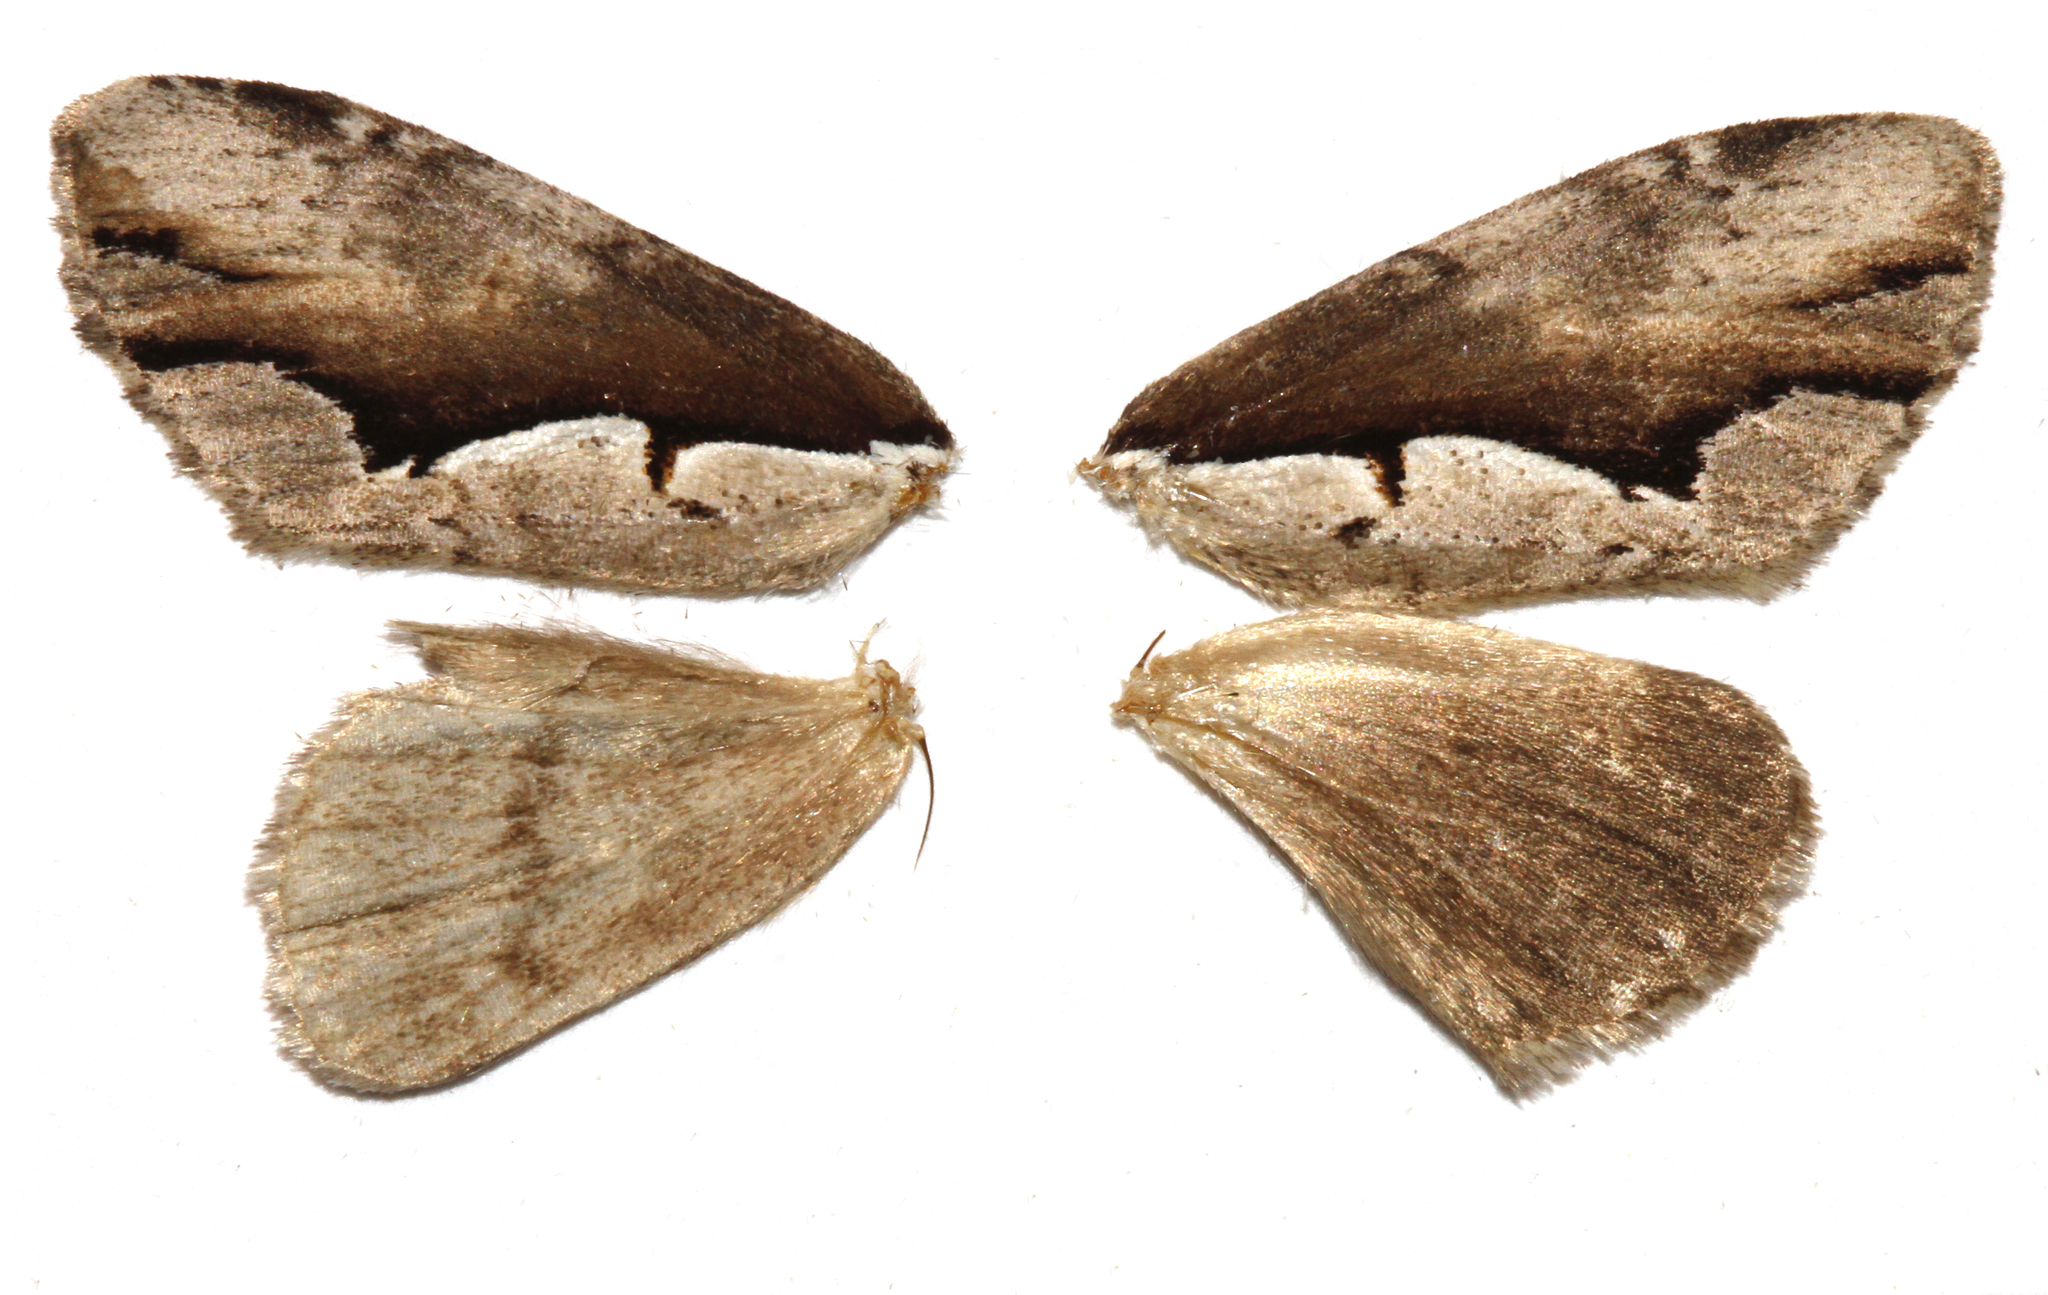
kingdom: Animalia
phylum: Arthropoda
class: Insecta
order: Lepidoptera
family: Notodontidae
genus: Nerice
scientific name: Nerice bidentata
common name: Double-toothed prominent
